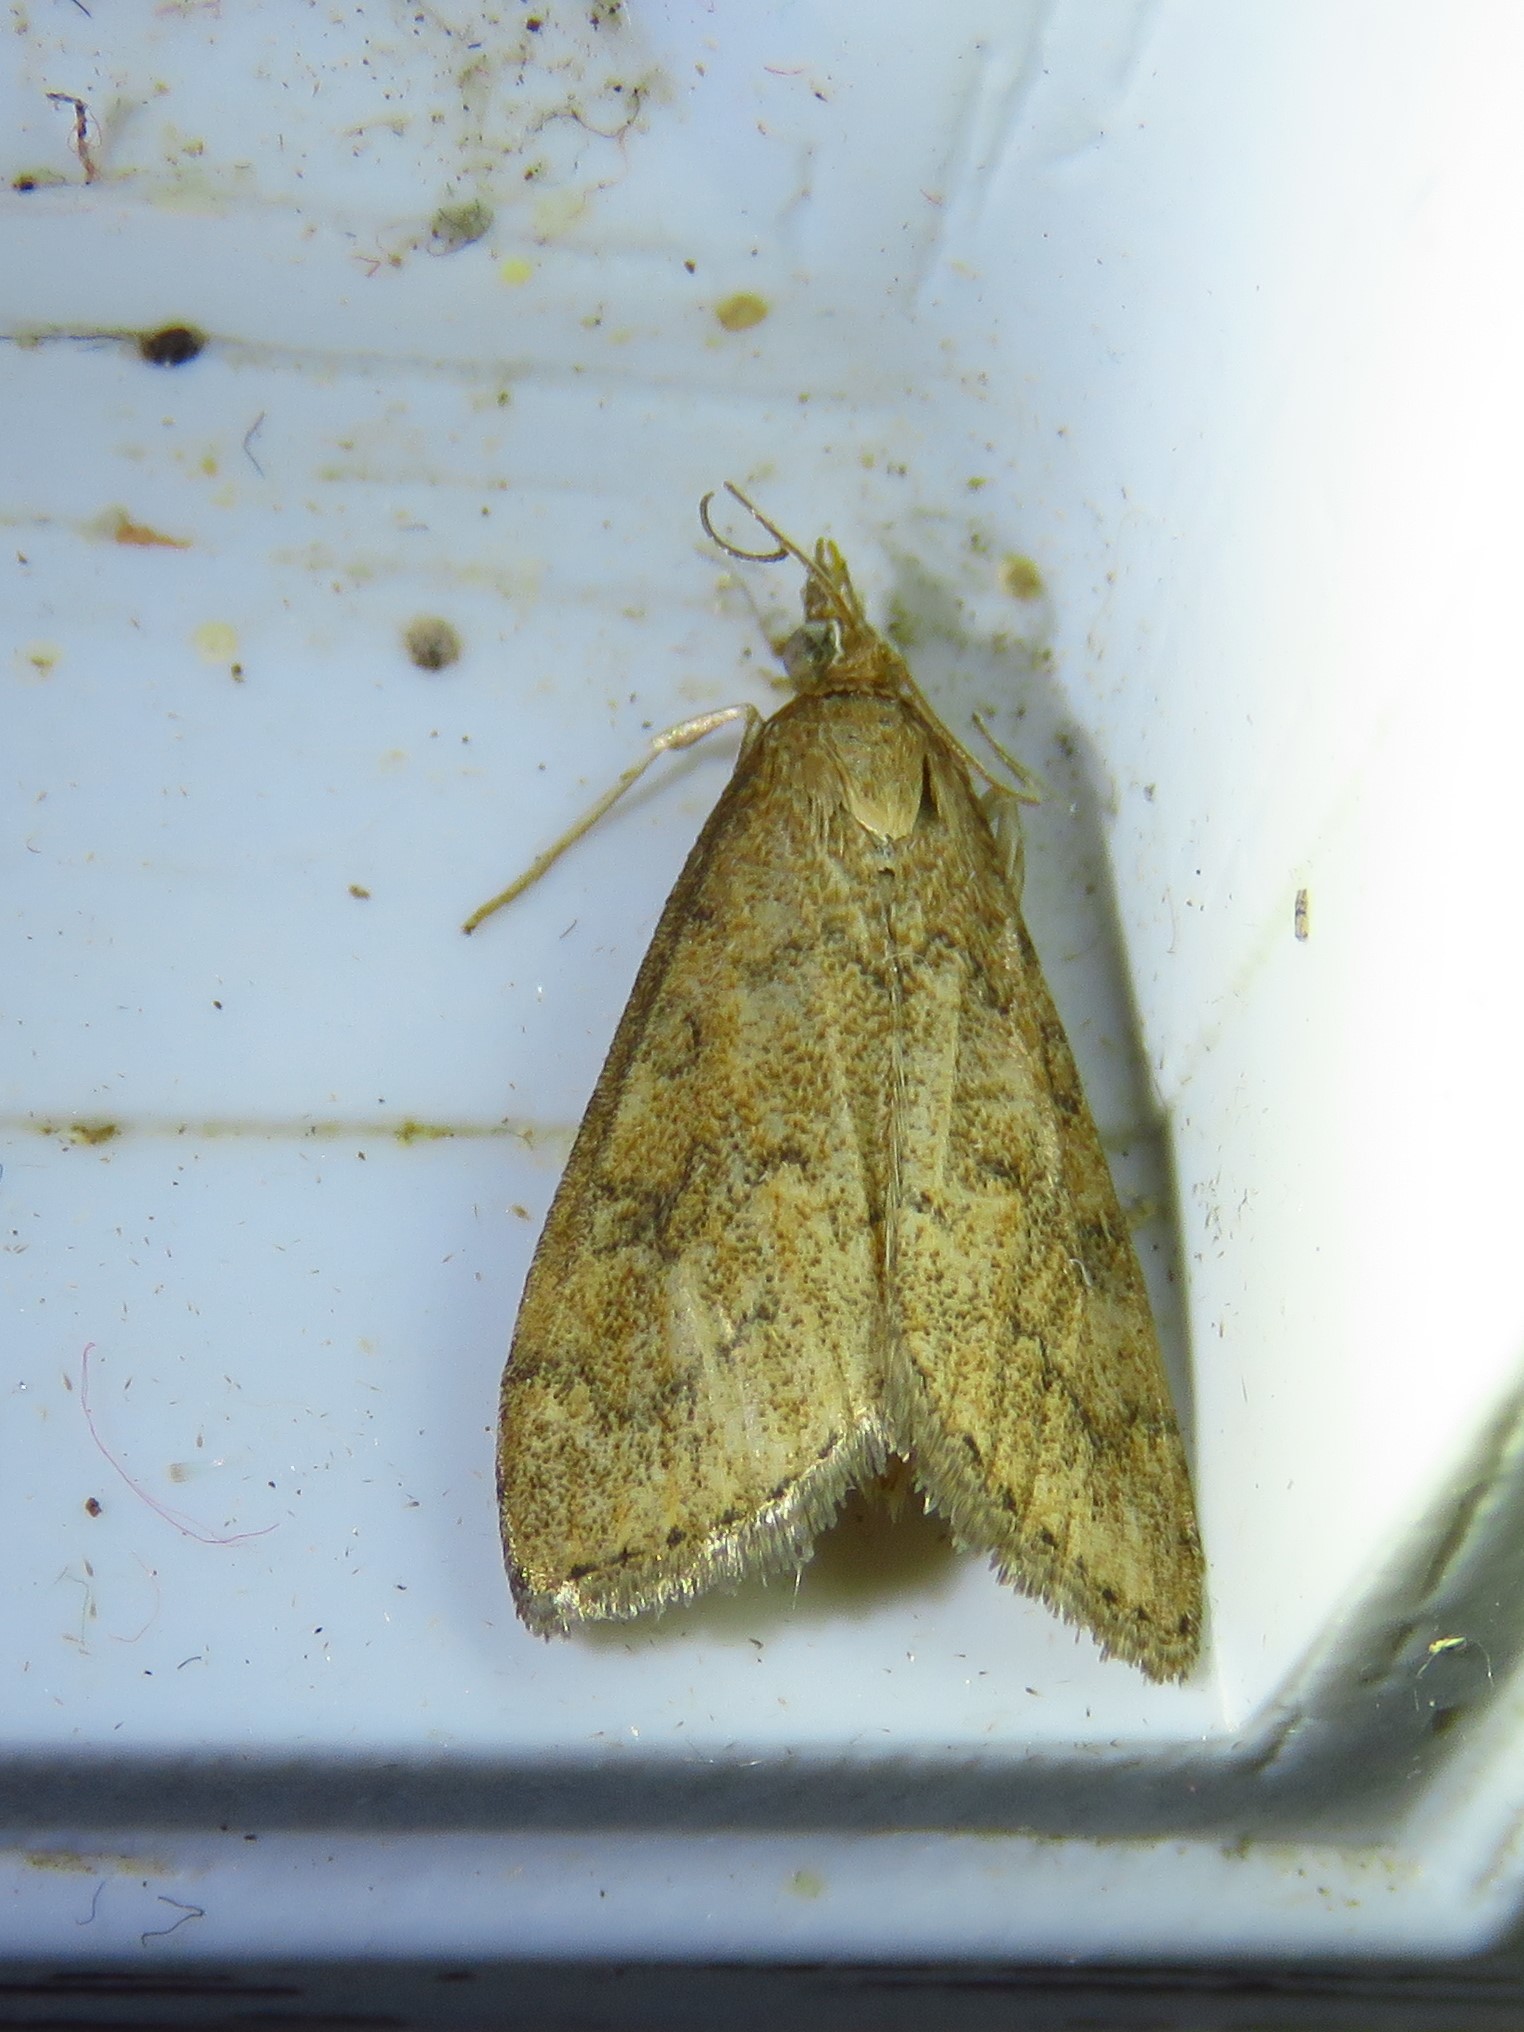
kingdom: Animalia
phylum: Arthropoda
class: Insecta
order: Lepidoptera
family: Crambidae
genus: Udea
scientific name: Udea rubigalis
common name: Celery leaftier moth
